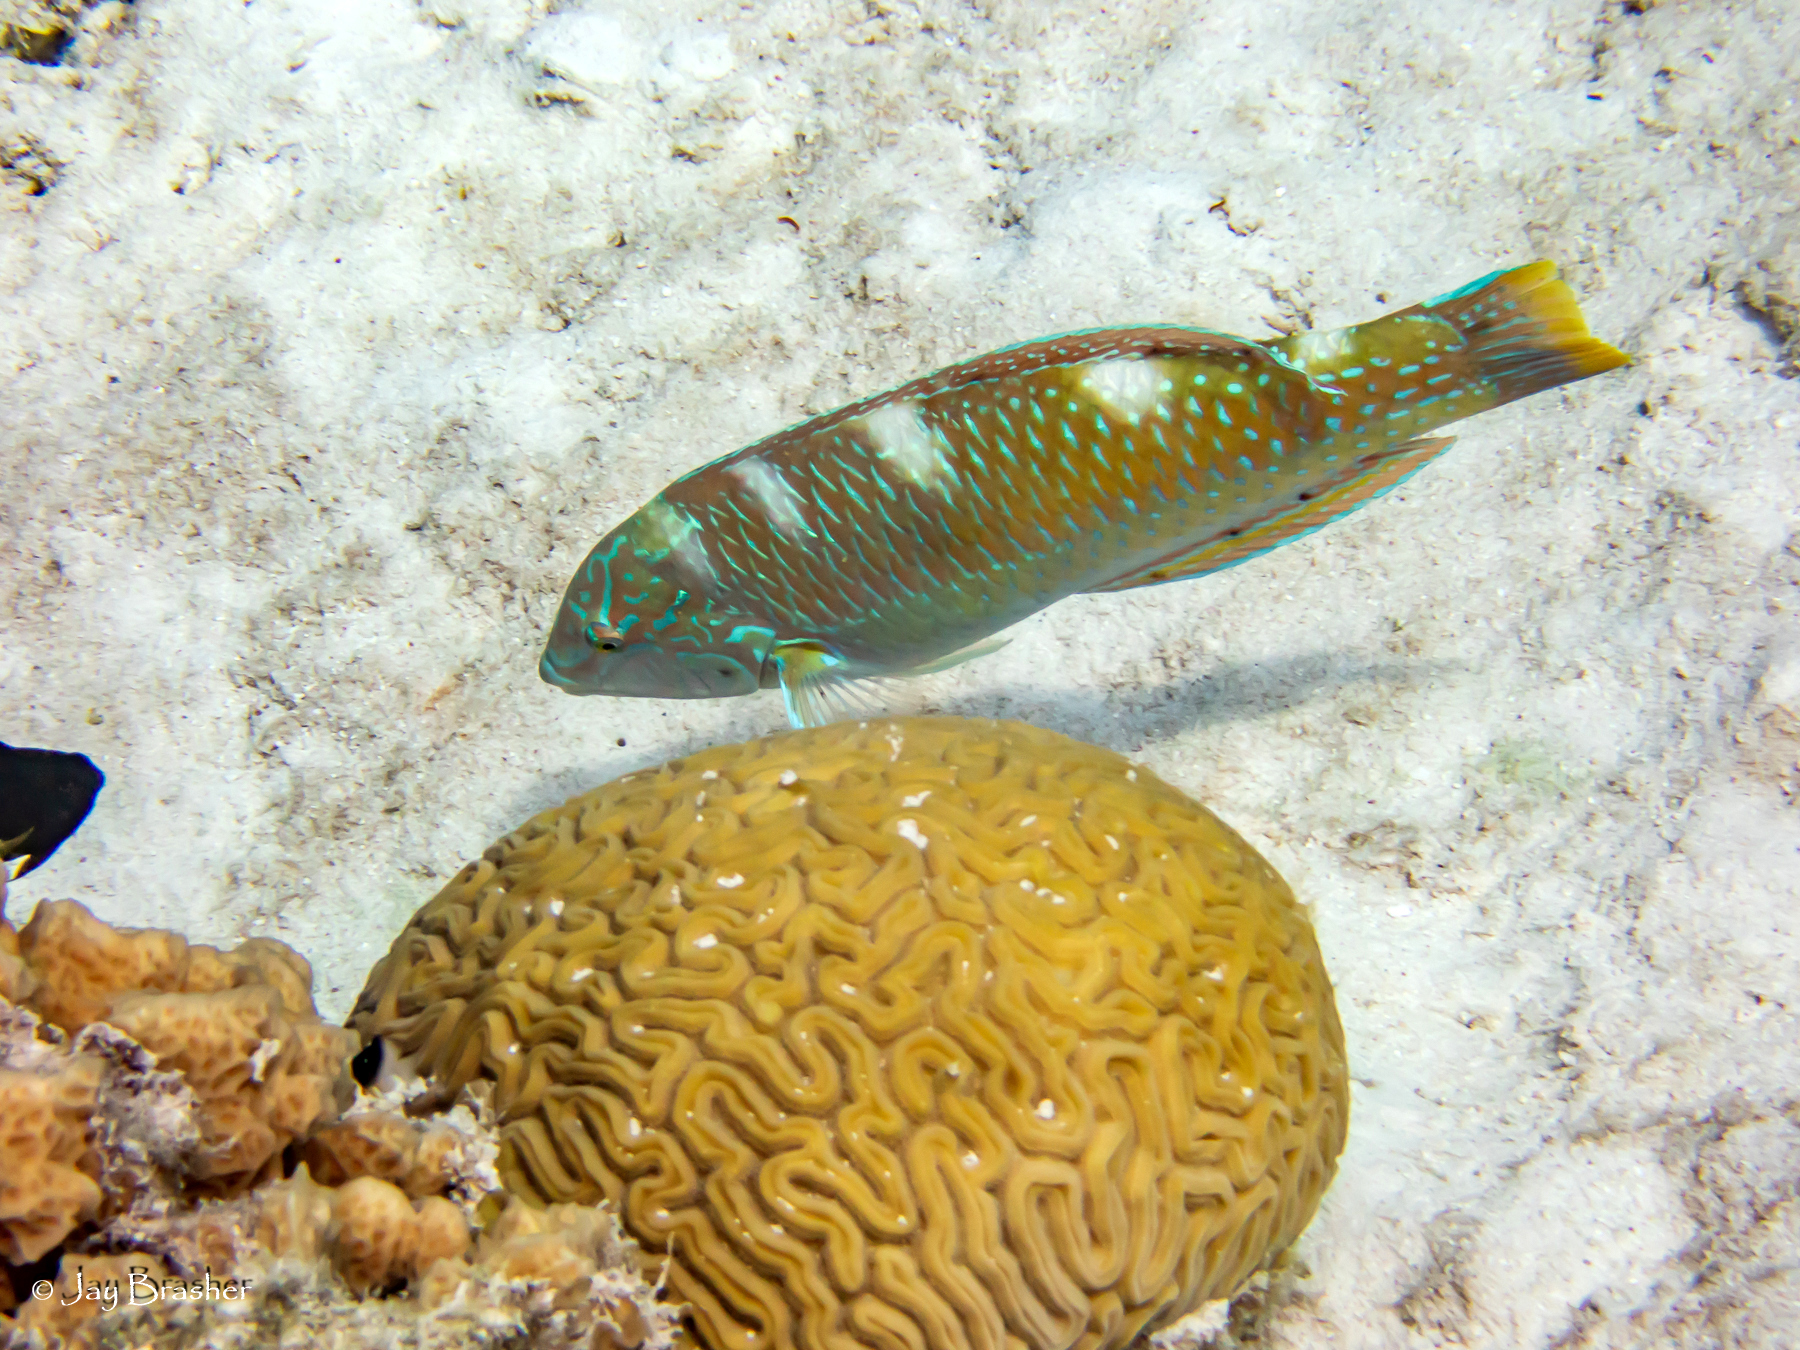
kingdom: Animalia
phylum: Chordata
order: Perciformes
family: Labridae
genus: Halichoeres
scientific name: Halichoeres radiatus
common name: Puddingwife
